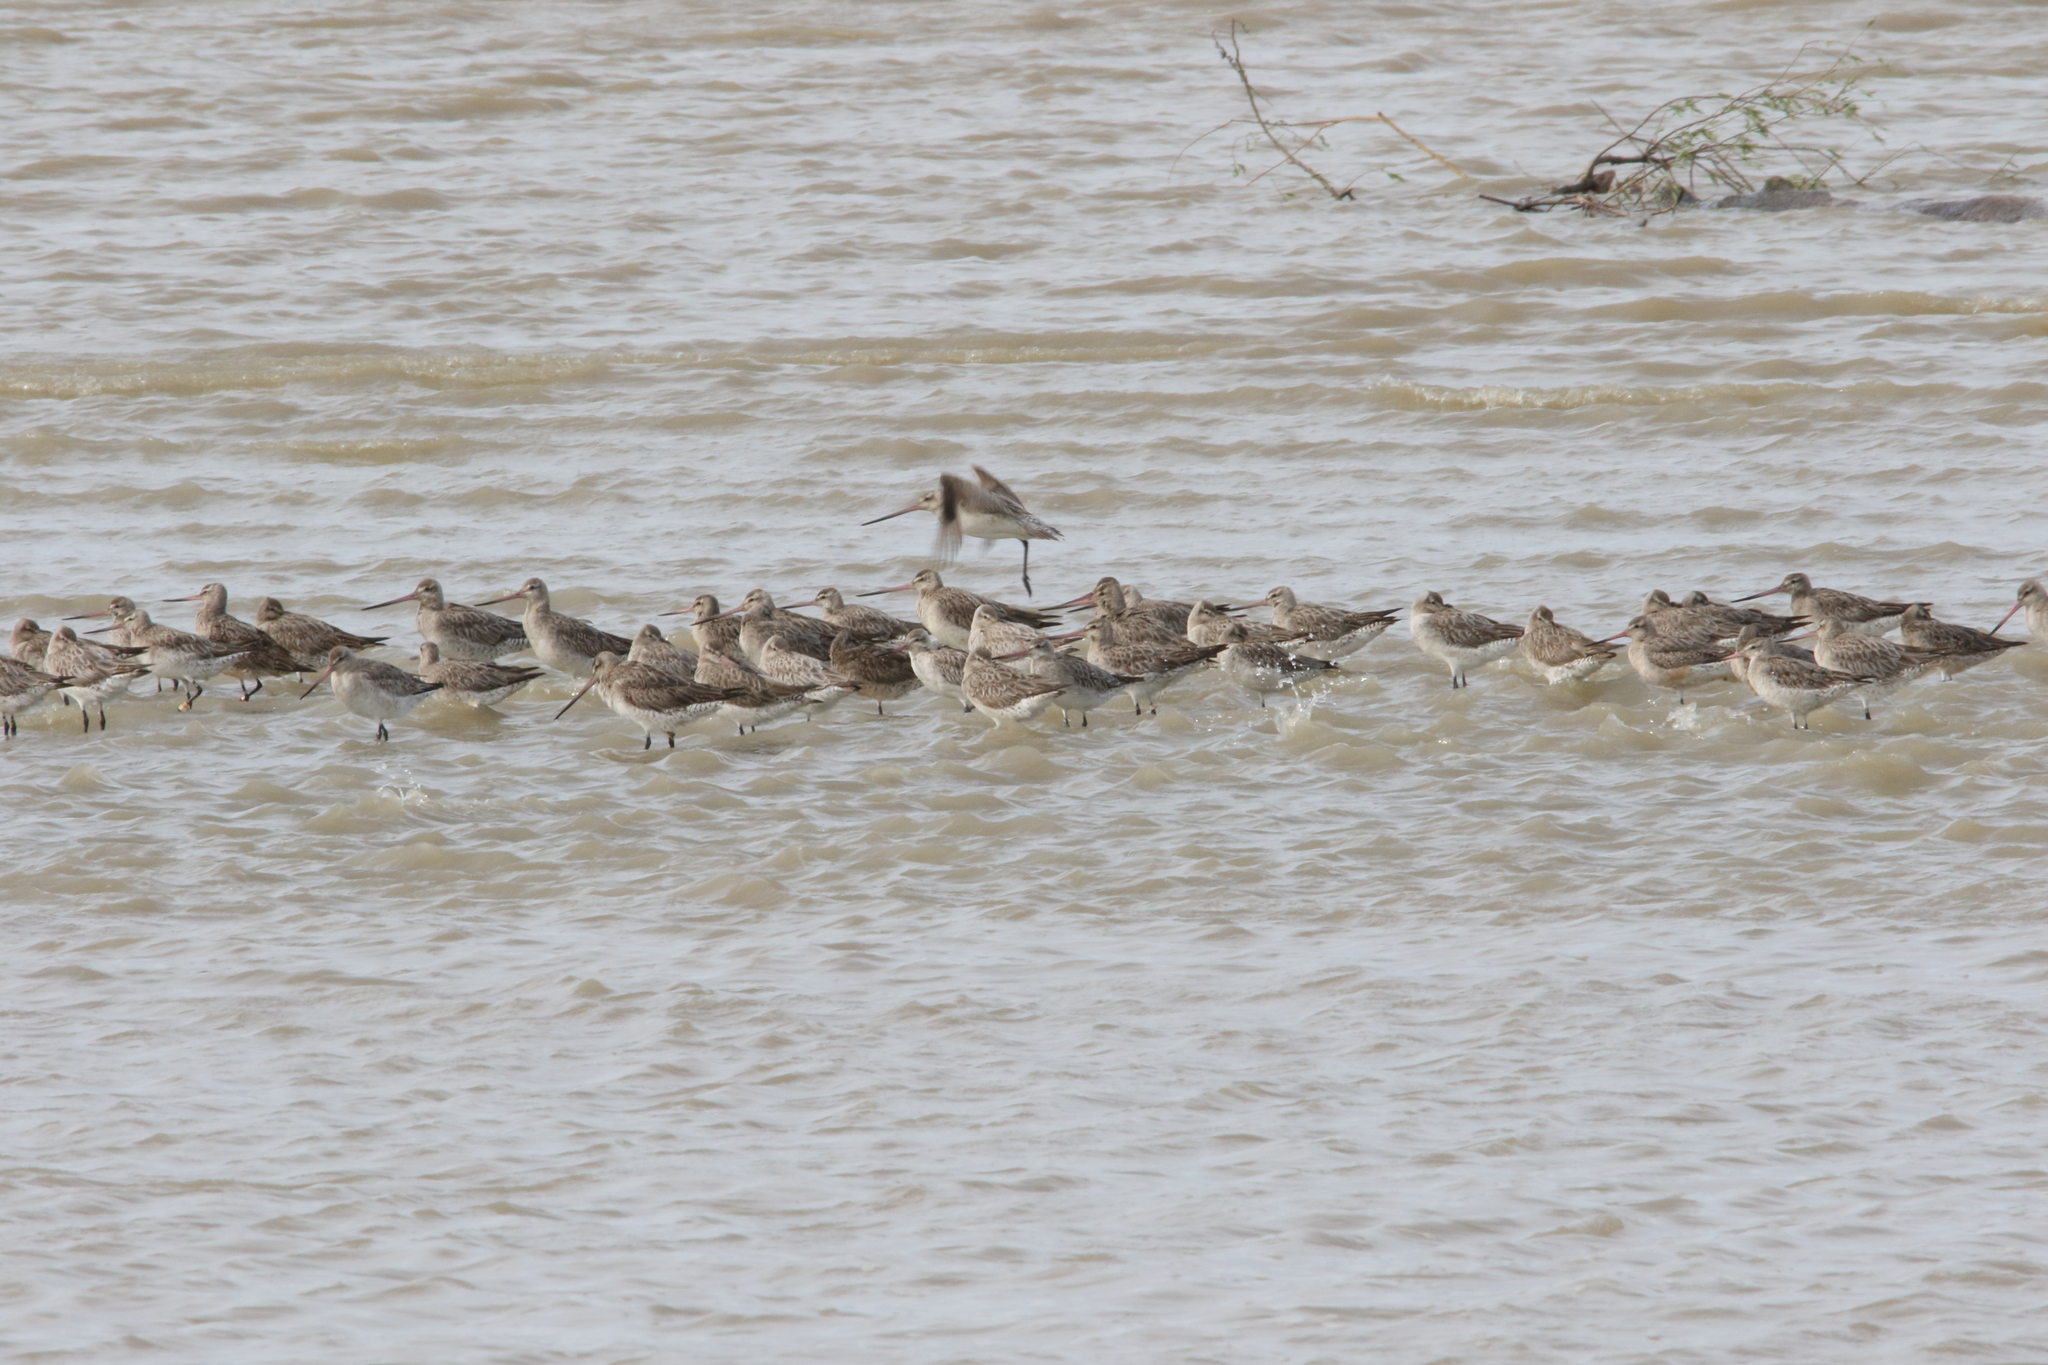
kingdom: Animalia
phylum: Chordata
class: Aves
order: Charadriiformes
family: Scolopacidae
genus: Limosa
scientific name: Limosa lapponica
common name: Bar-tailed godwit
